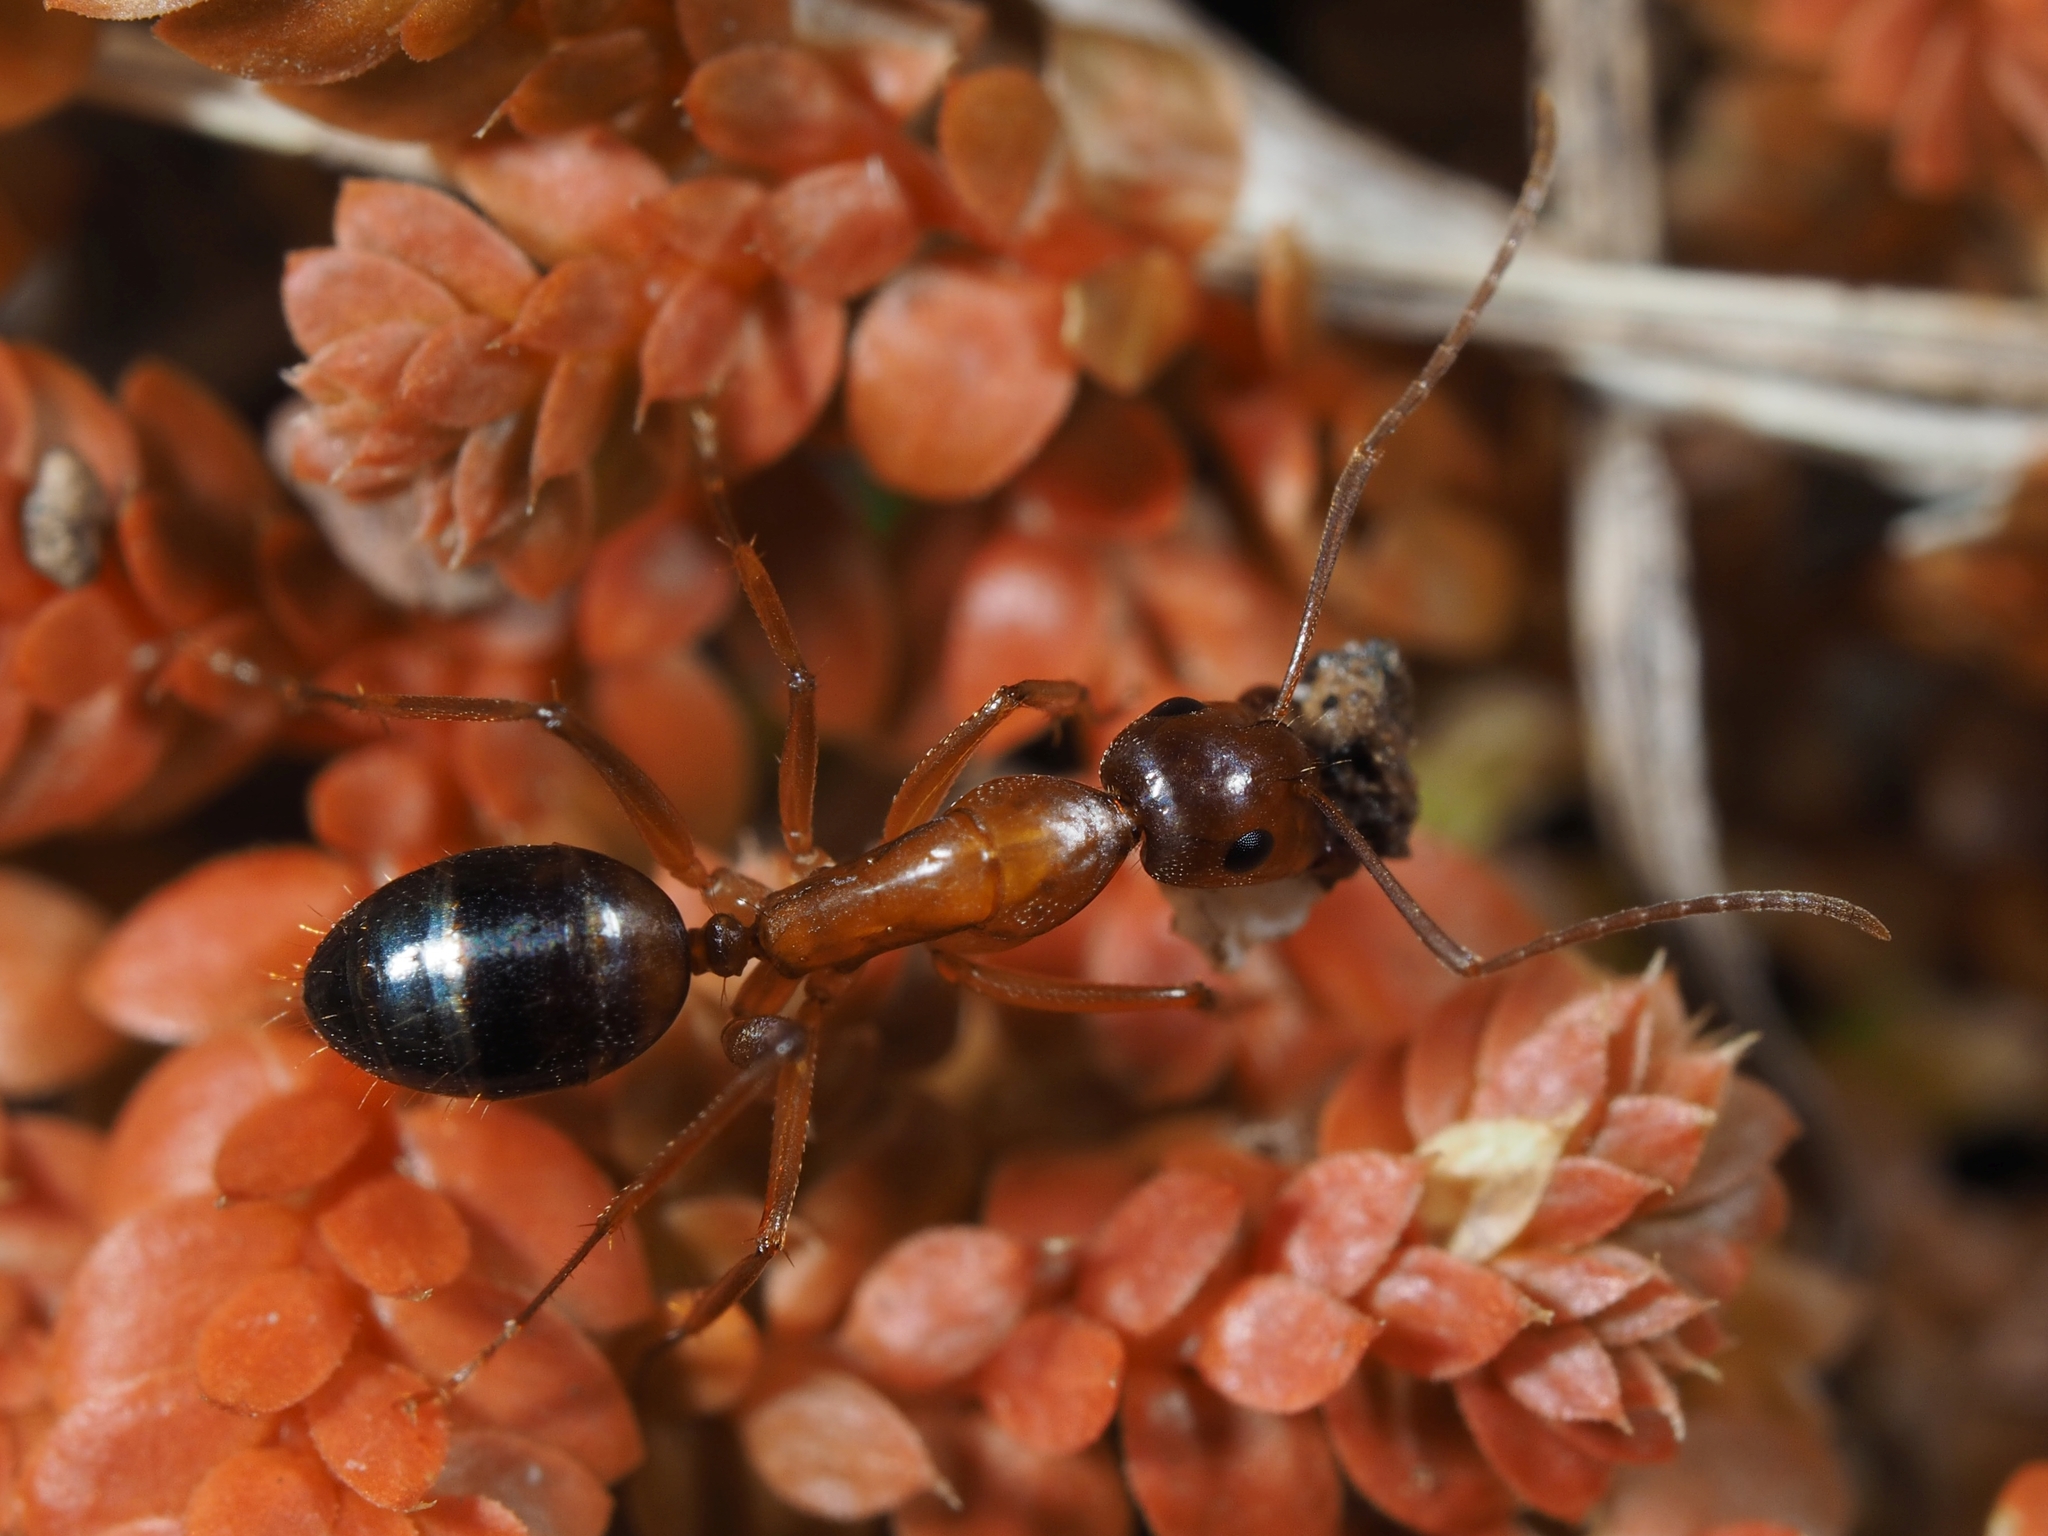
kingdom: Animalia
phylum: Arthropoda
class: Insecta
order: Hymenoptera
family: Formicidae
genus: Camponotus
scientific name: Camponotus nylanderi
